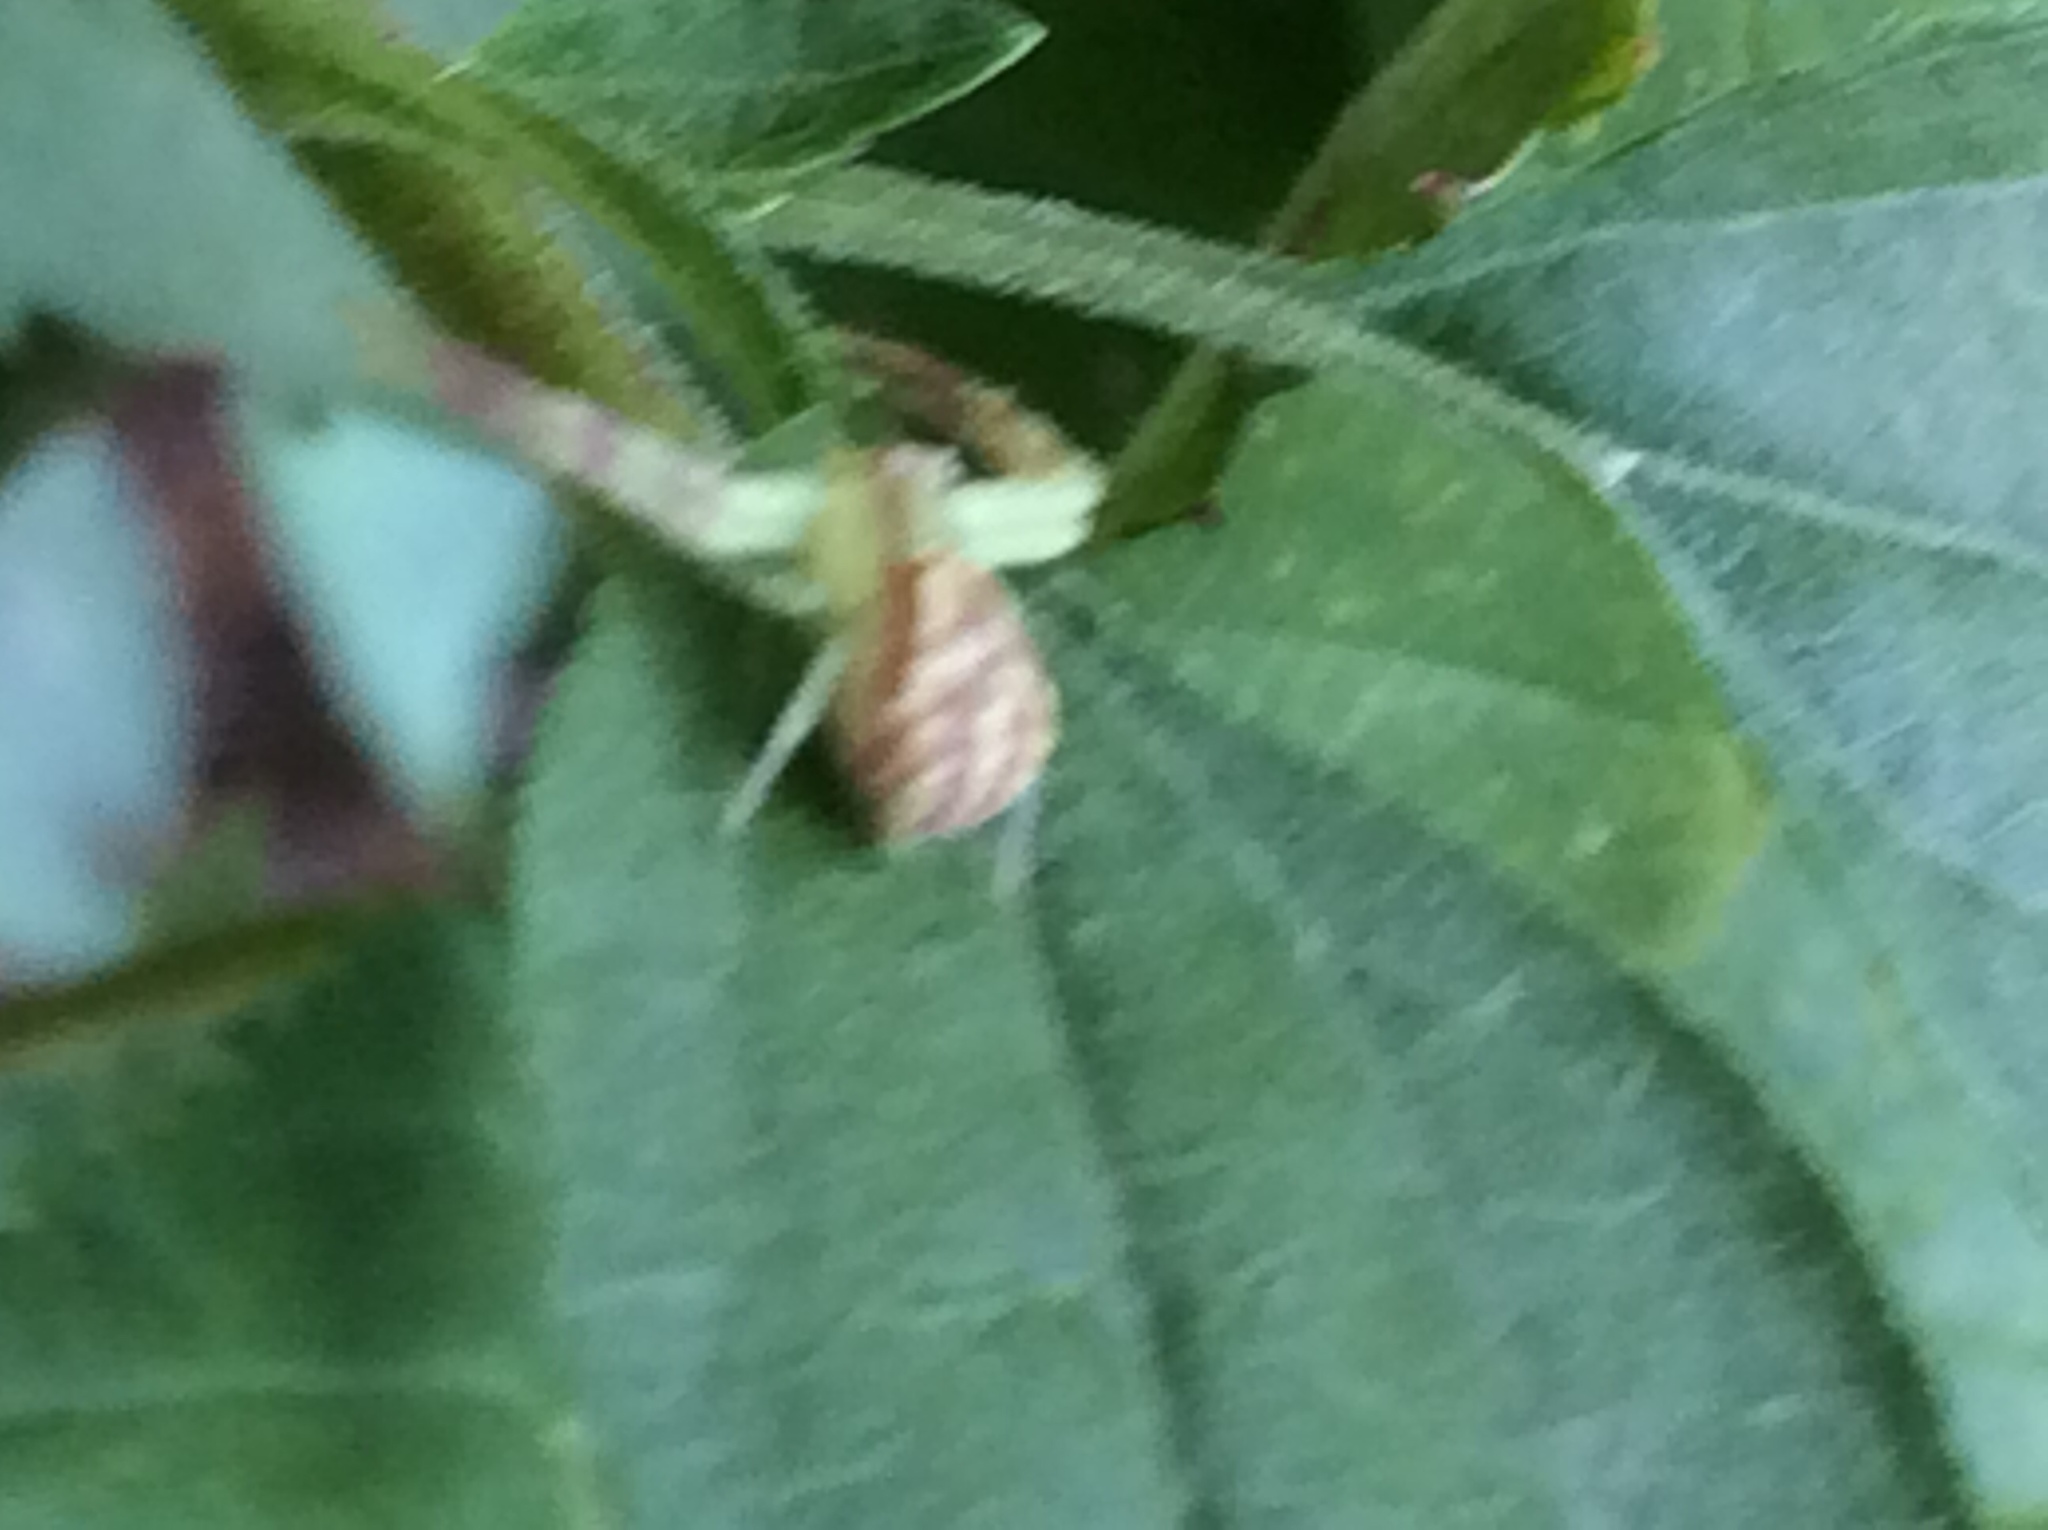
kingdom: Animalia
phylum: Arthropoda
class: Arachnida
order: Araneae
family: Thomisidae
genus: Mecaphesa
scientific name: Mecaphesa asperata
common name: Crab spiders
